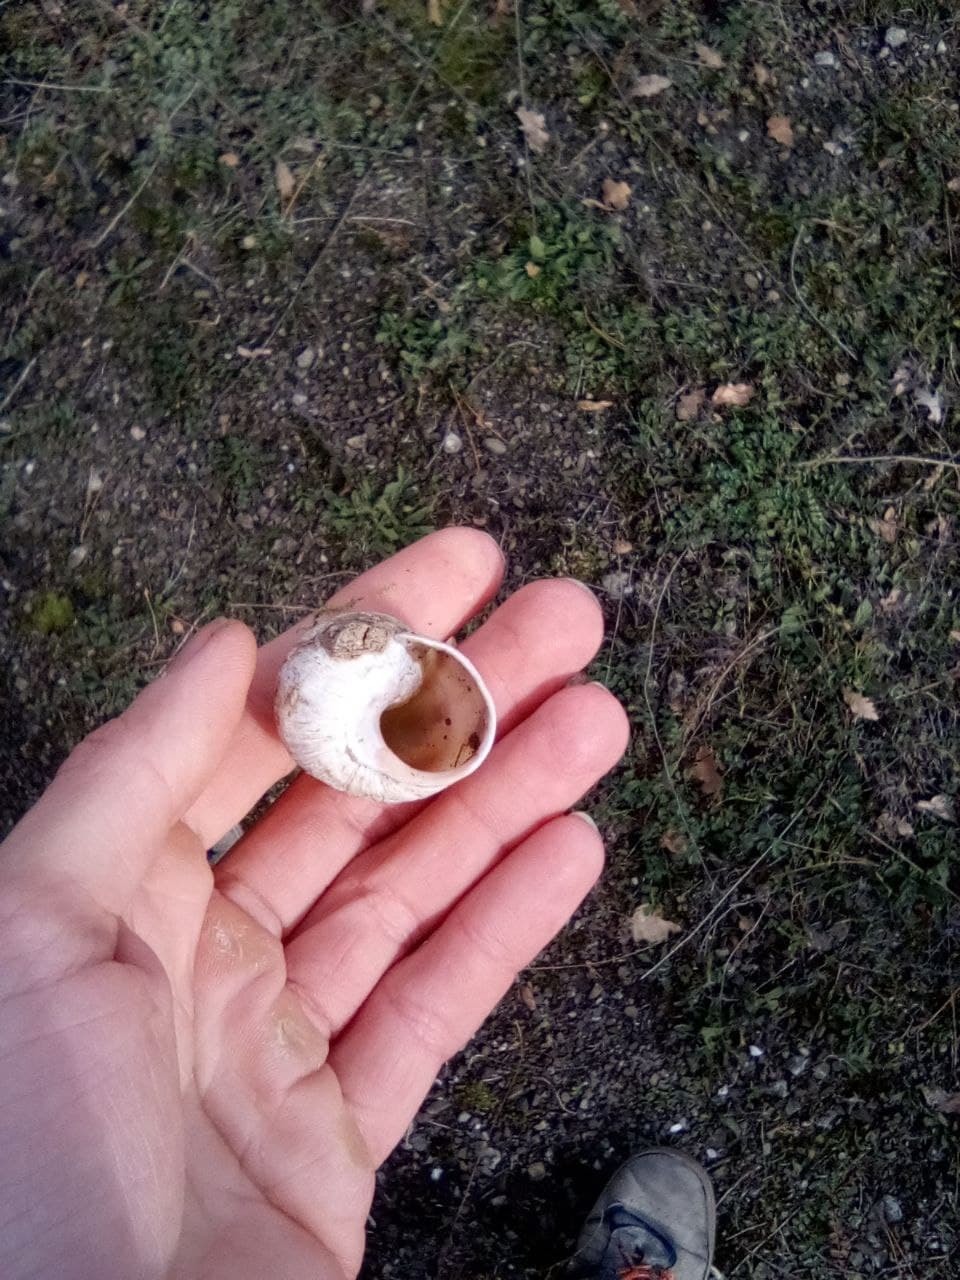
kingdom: Animalia
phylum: Mollusca
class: Gastropoda
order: Stylommatophora
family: Helicidae
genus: Helix
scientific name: Helix albescens
